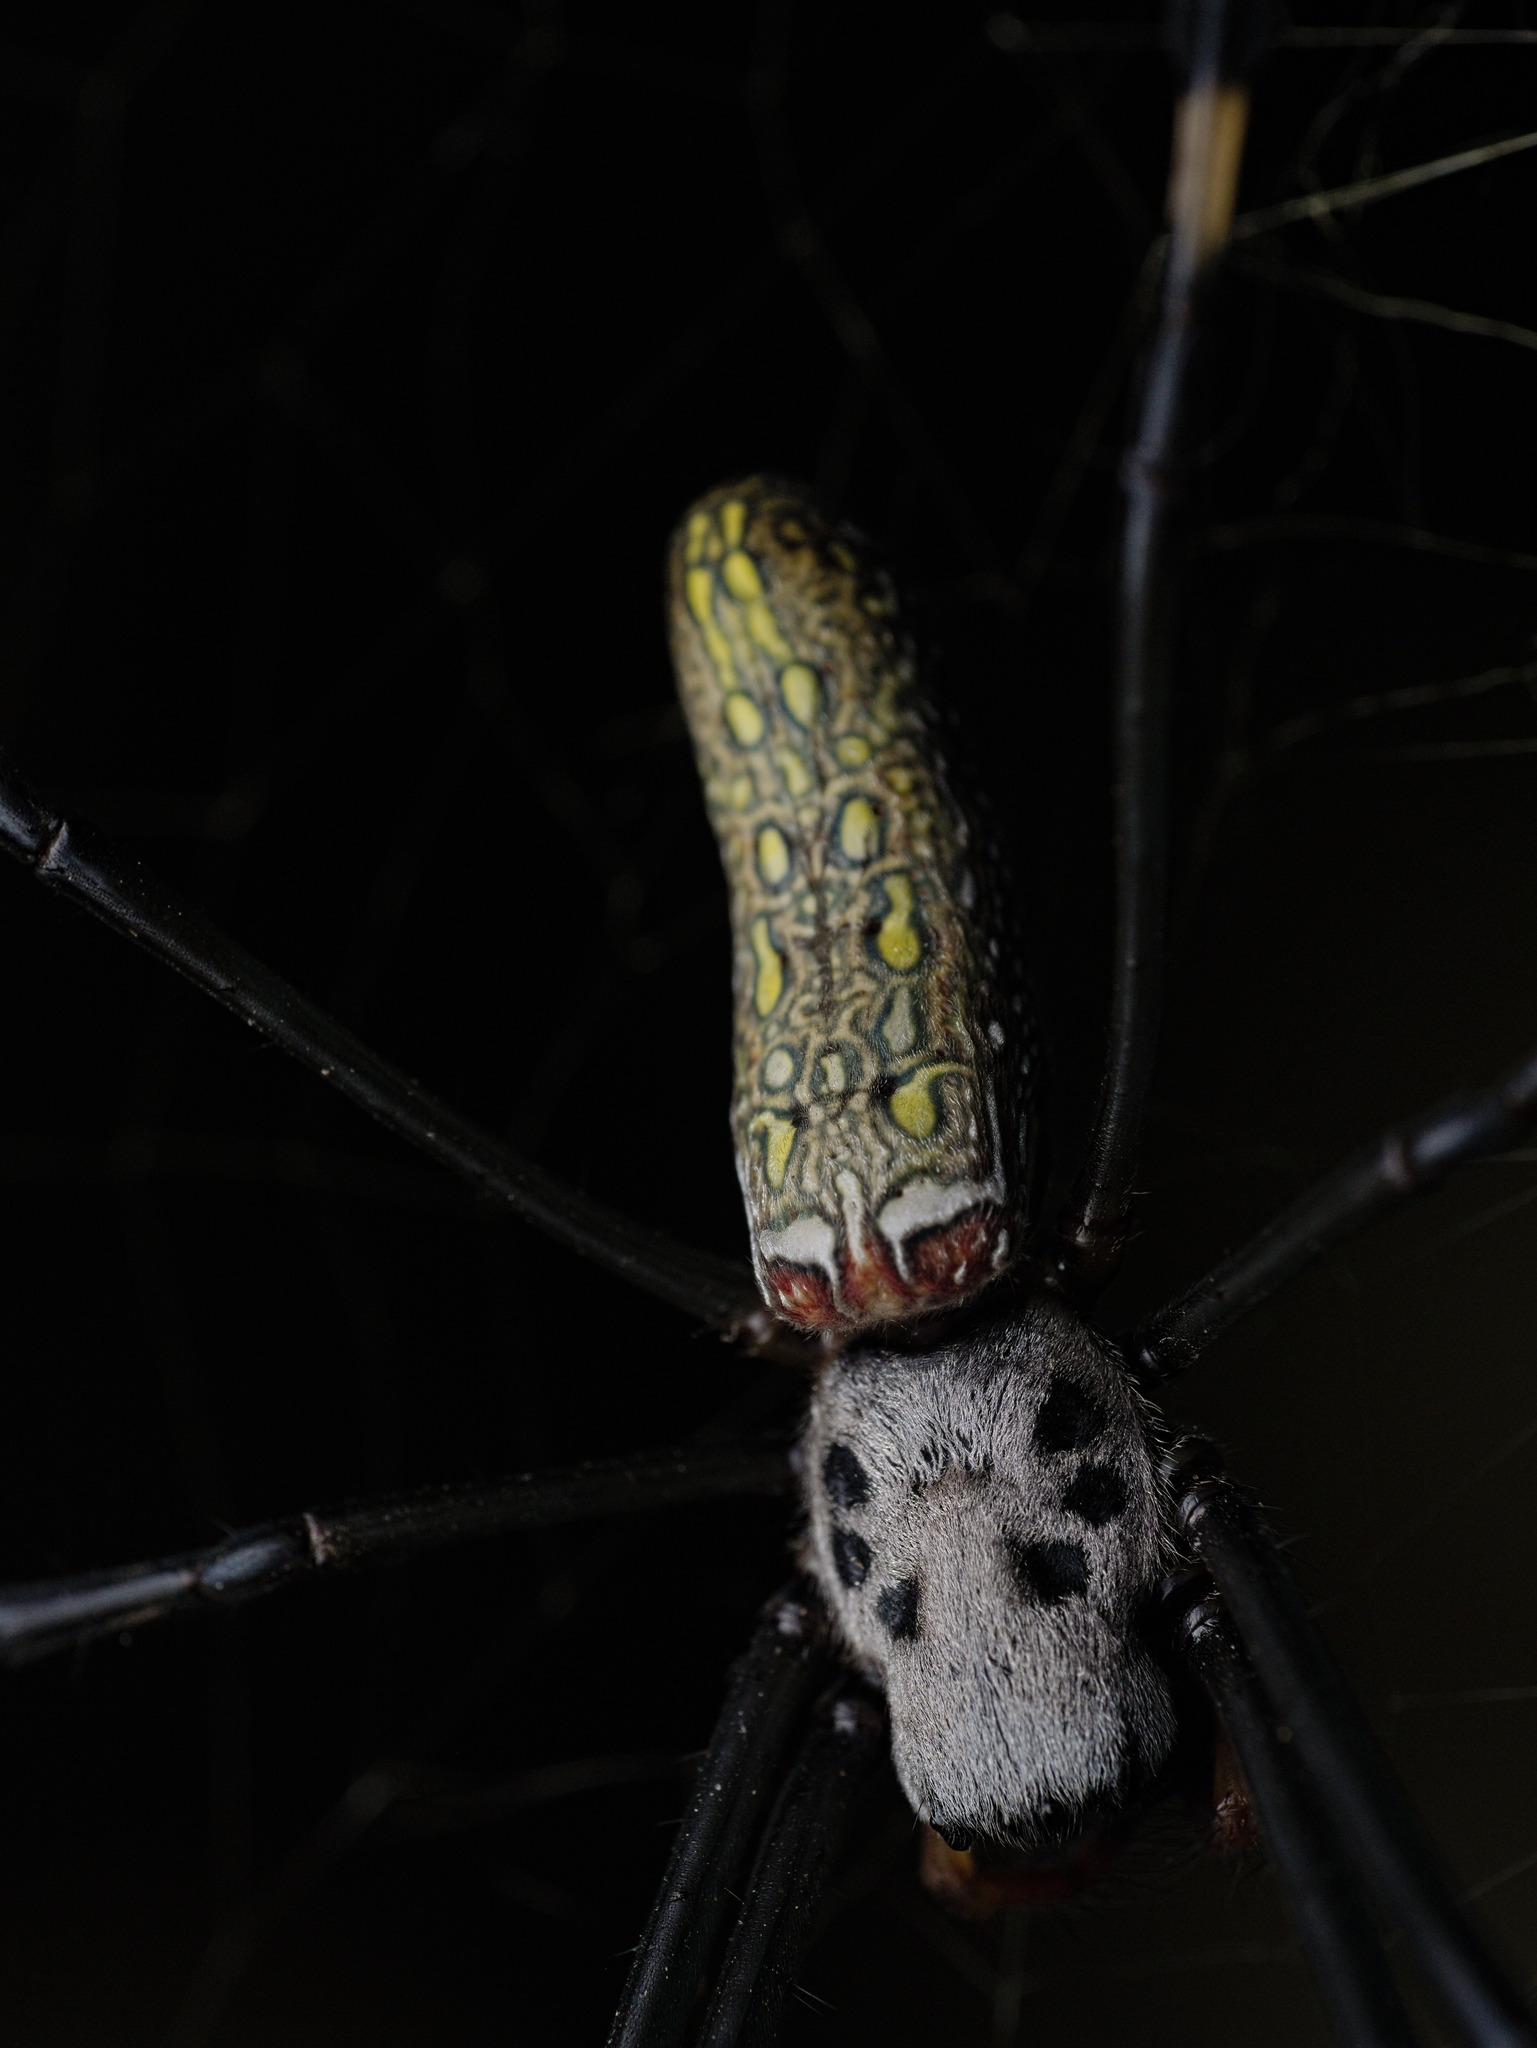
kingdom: Animalia
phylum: Arthropoda
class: Arachnida
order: Araneae
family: Araneidae
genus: Trichonephila
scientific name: Trichonephila clavipes
